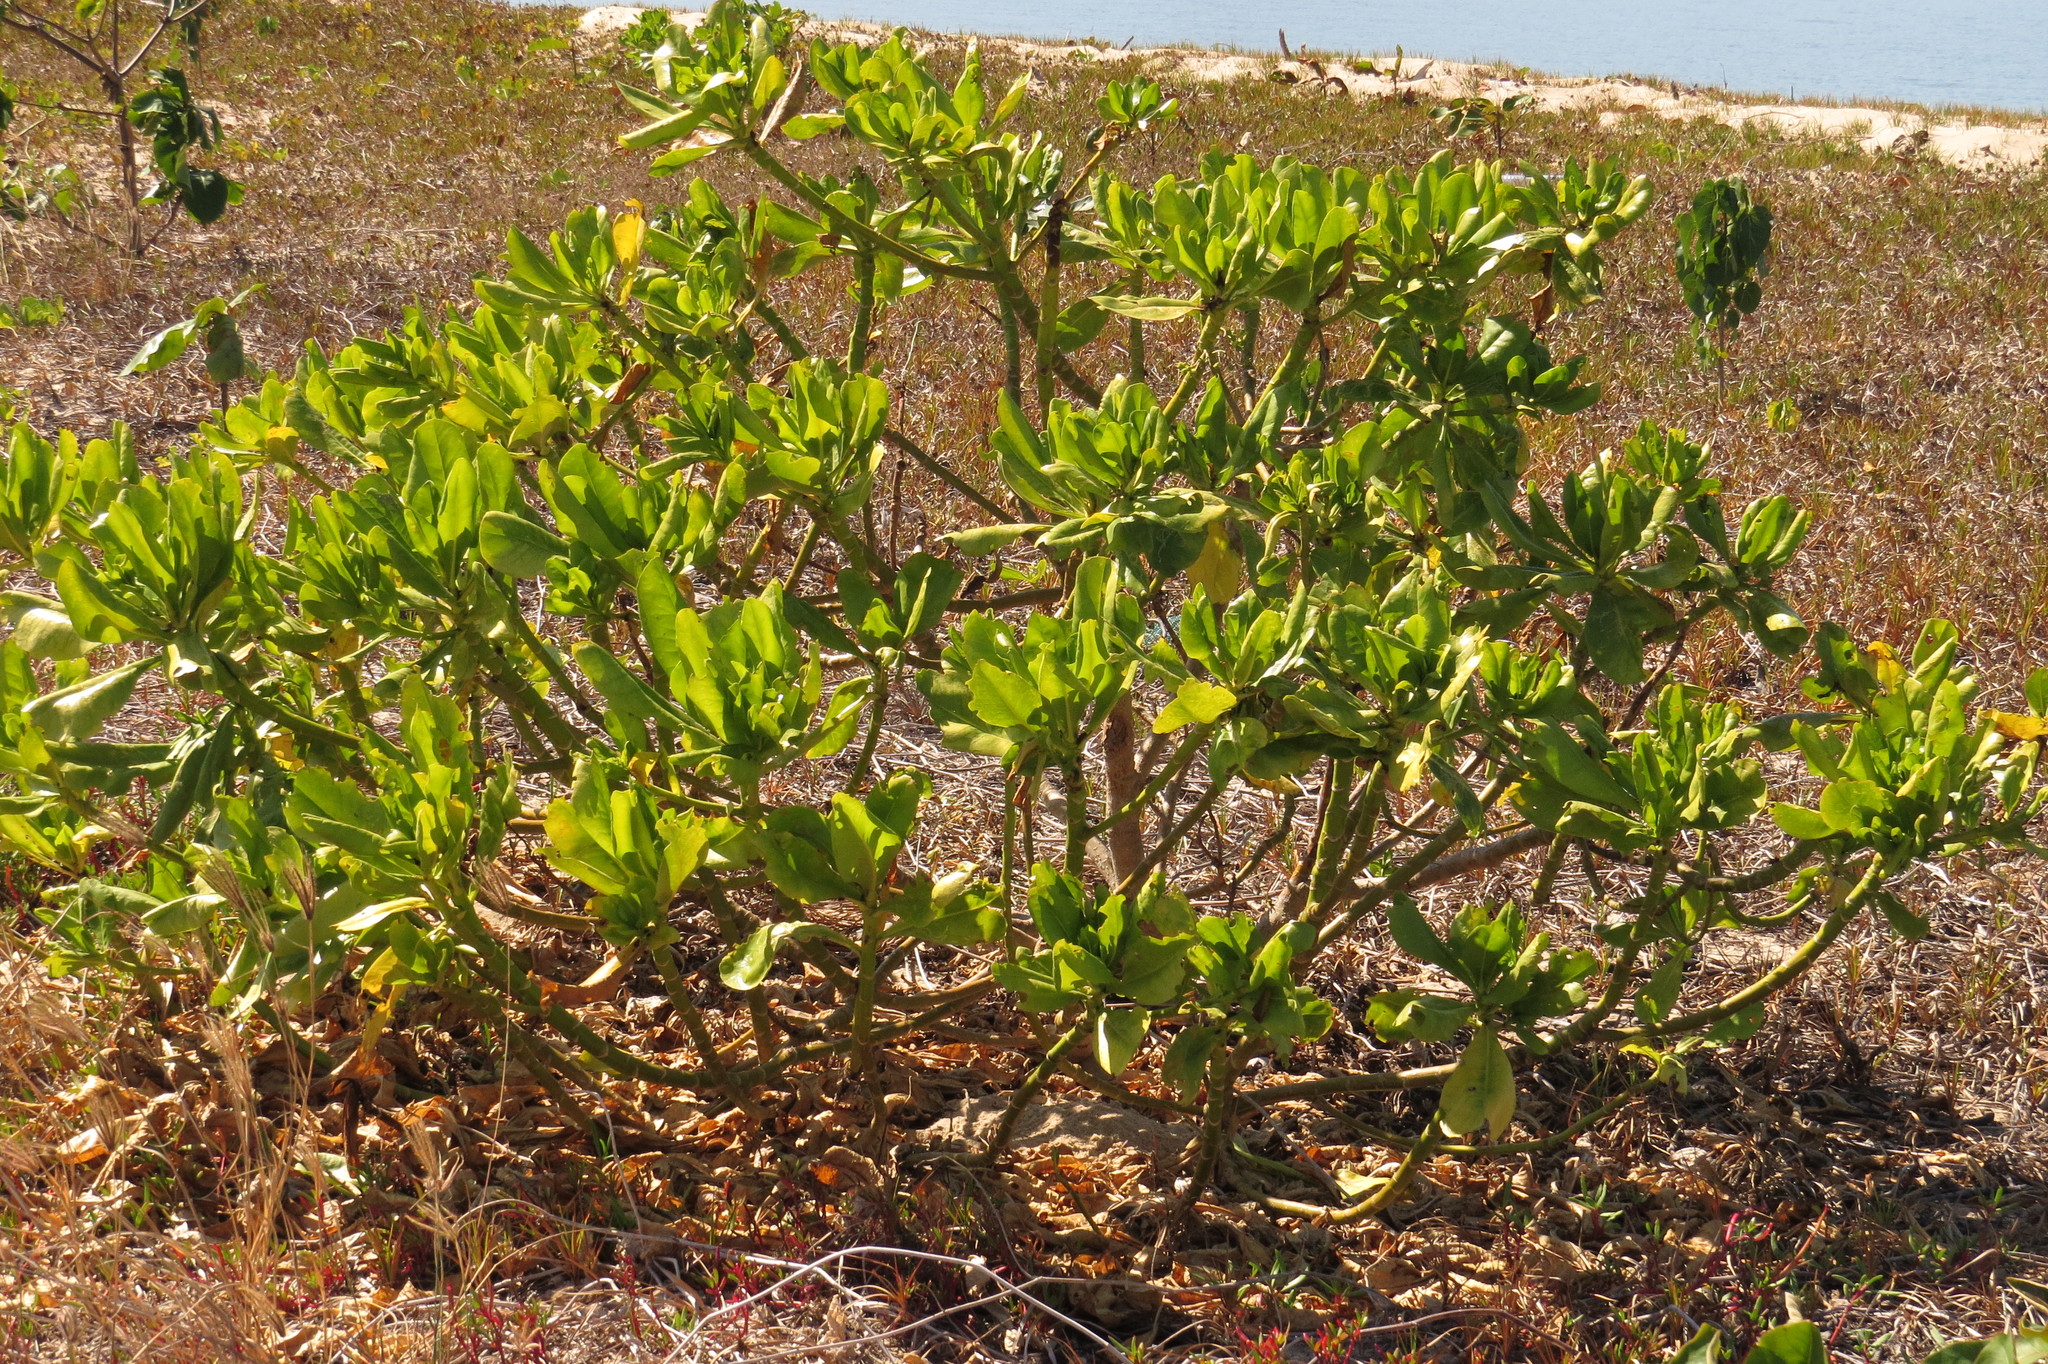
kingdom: Plantae
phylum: Tracheophyta
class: Magnoliopsida
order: Asterales
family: Goodeniaceae
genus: Scaevola
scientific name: Scaevola taccada
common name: Sea lettucetree
